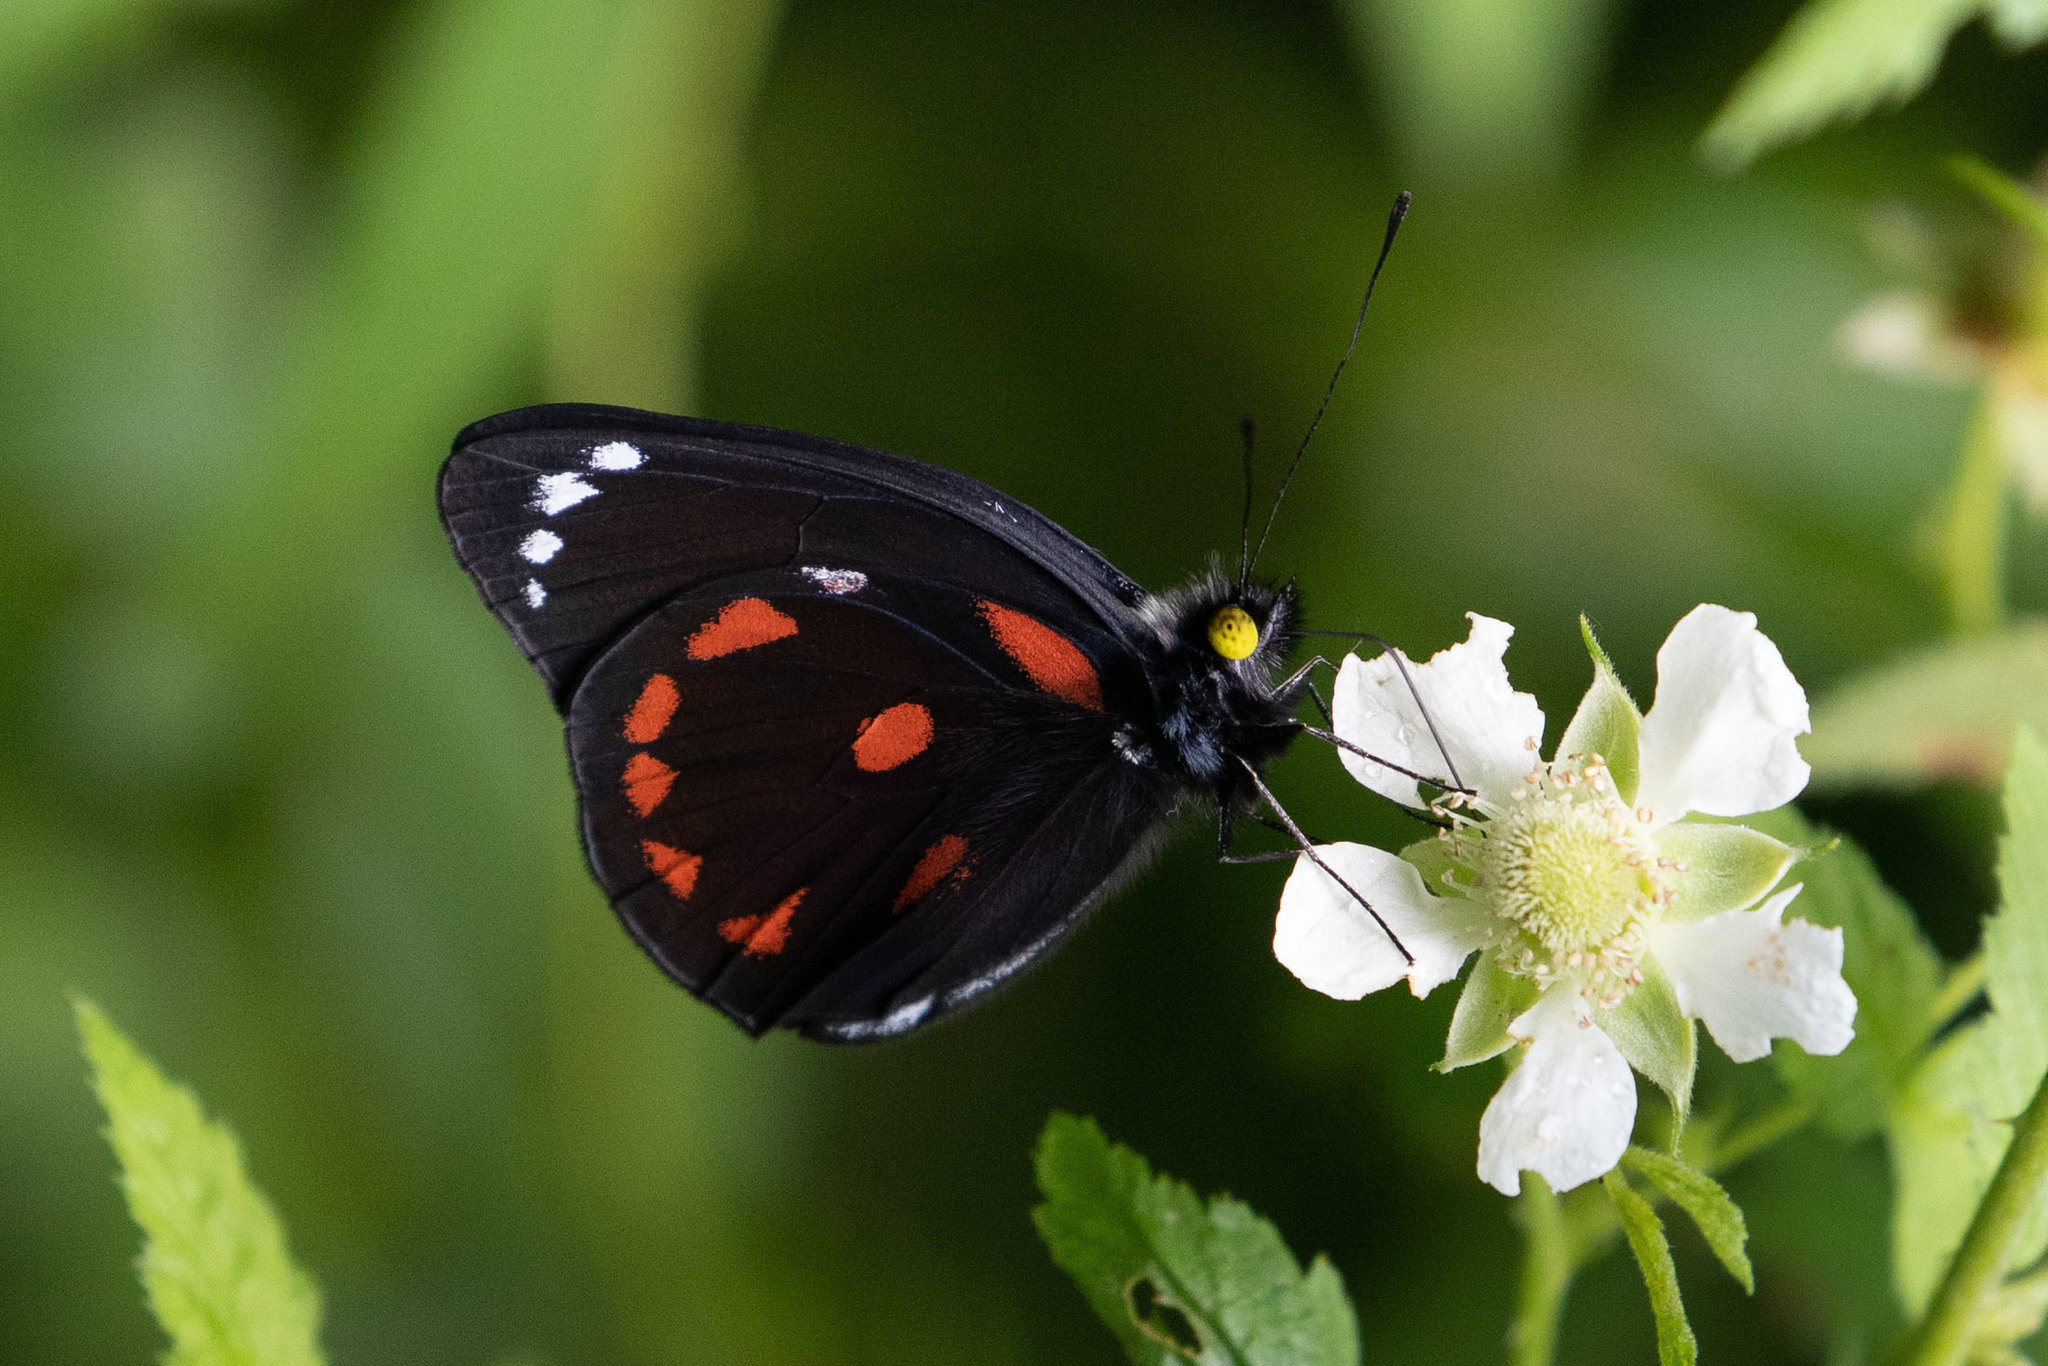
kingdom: Animalia
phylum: Arthropoda
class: Insecta
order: Lepidoptera
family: Pieridae
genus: Delias
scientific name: Delias bornemanni
